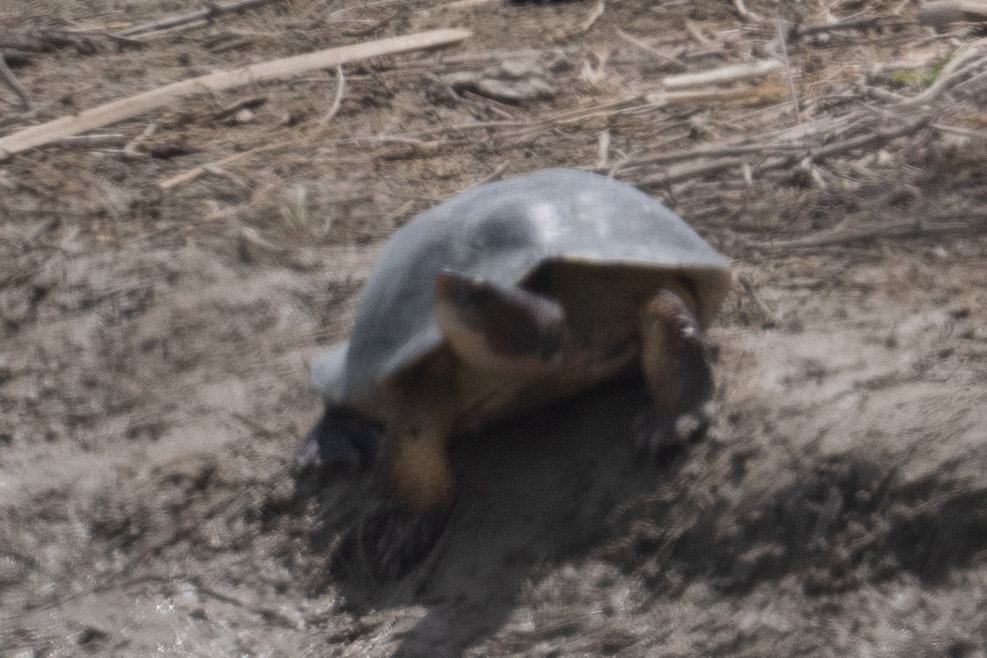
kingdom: Animalia
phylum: Chordata
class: Testudines
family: Emydidae
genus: Actinemys
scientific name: Actinemys marmorata
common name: Western pond turtle
